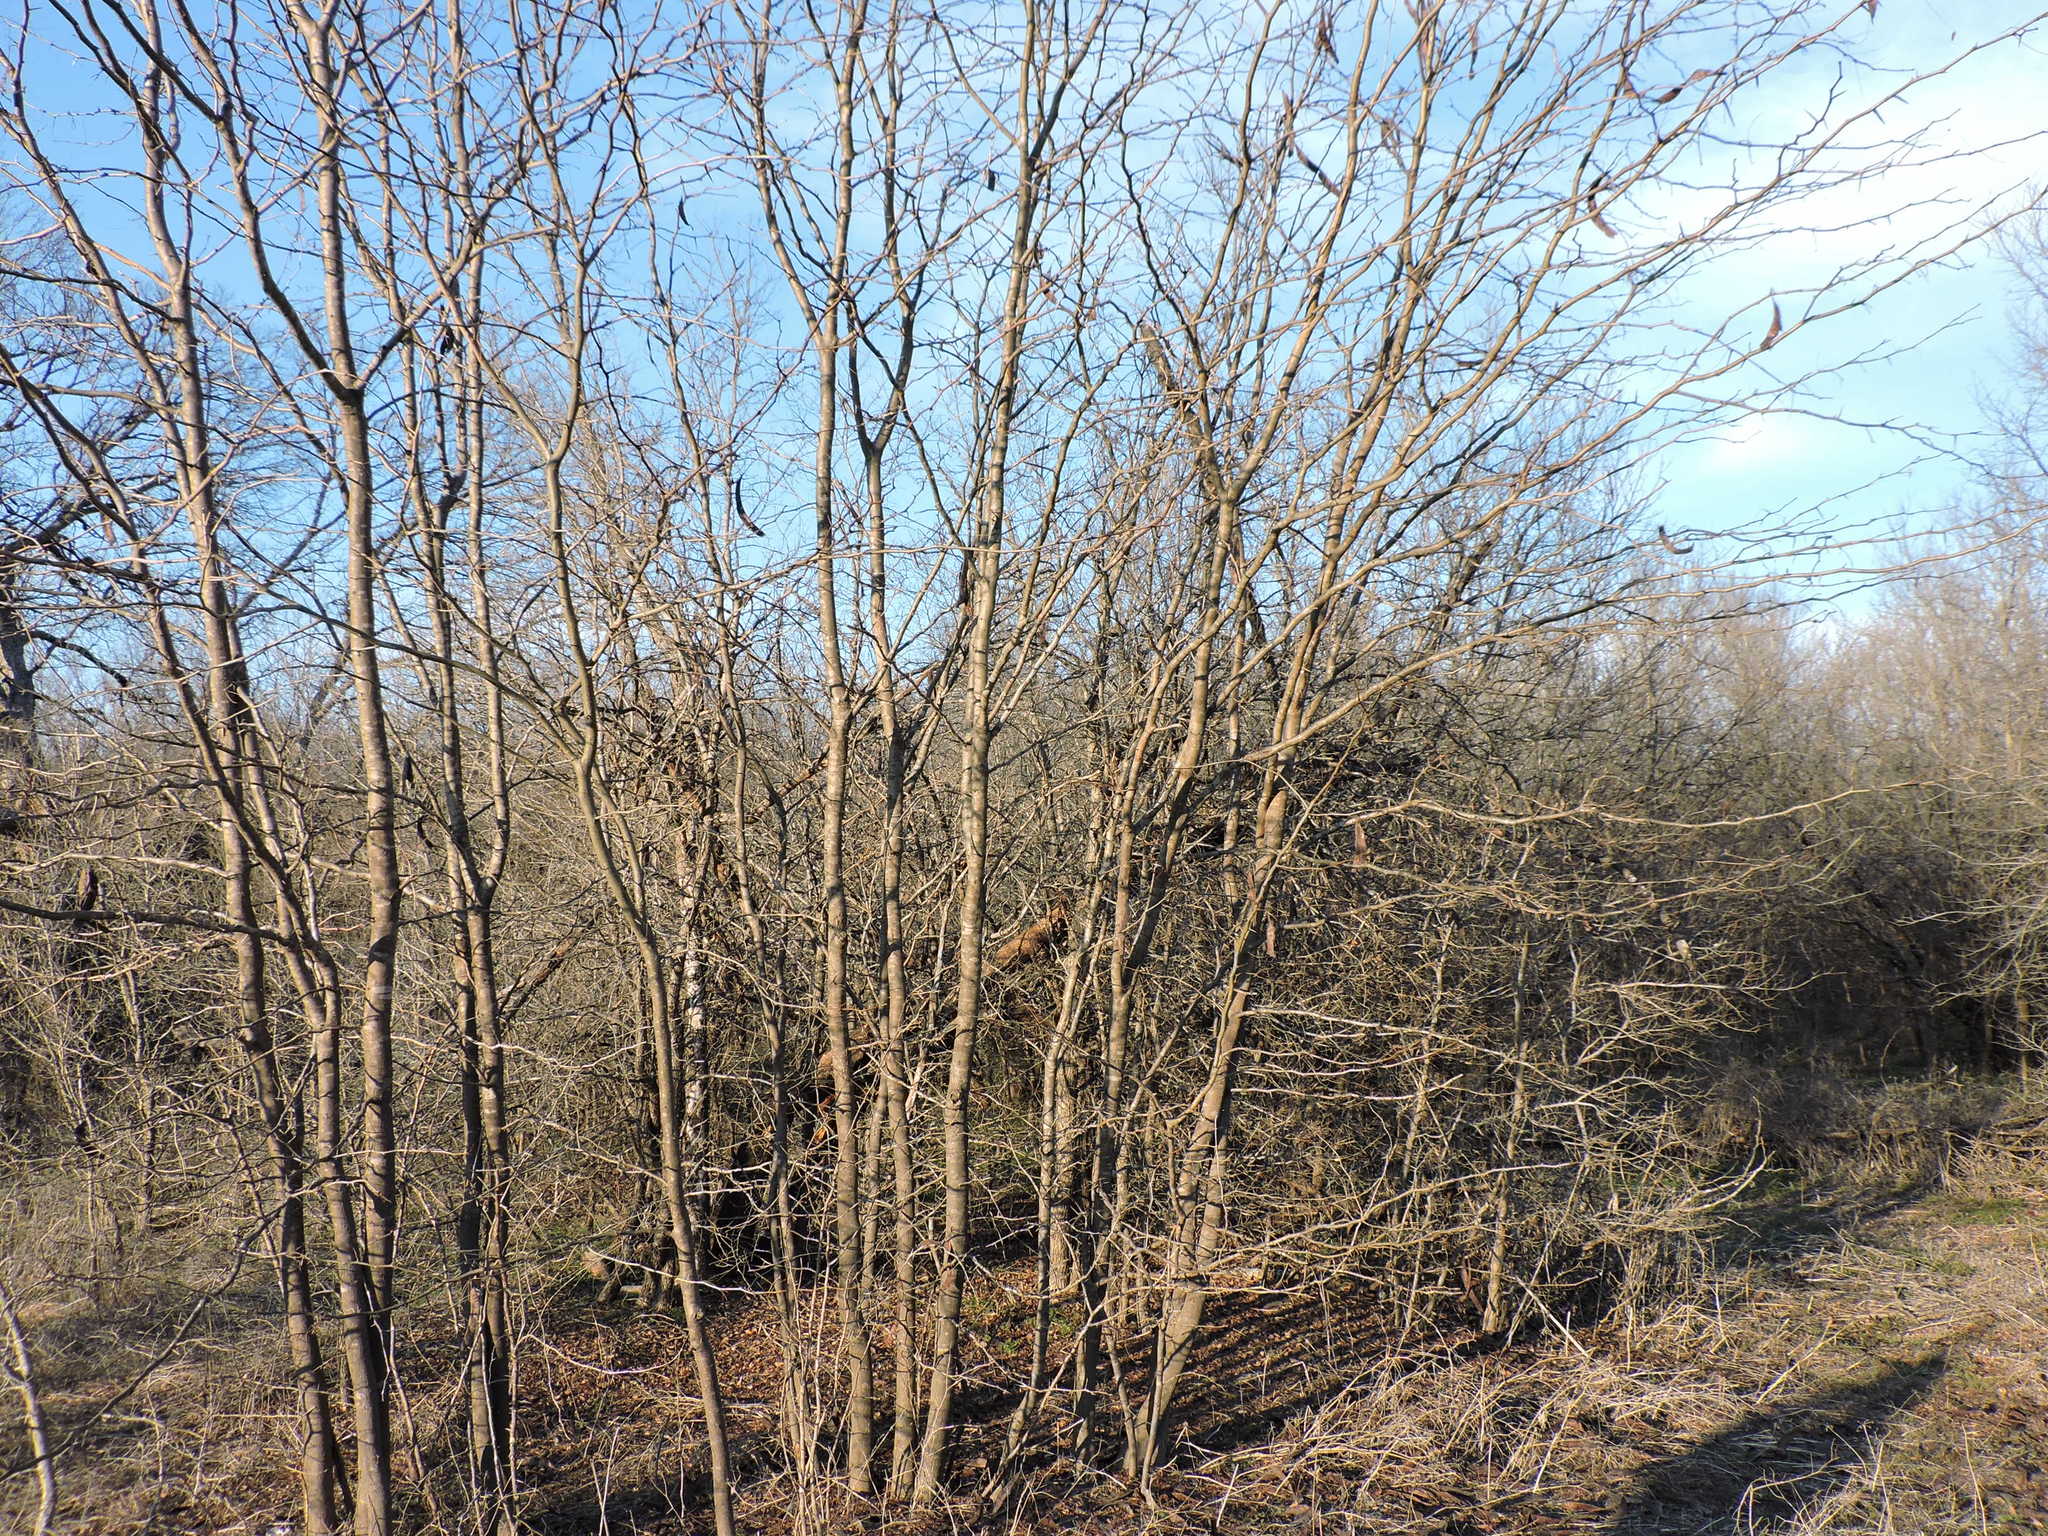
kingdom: Plantae
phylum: Tracheophyta
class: Magnoliopsida
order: Sapindales
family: Meliaceae
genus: Melia
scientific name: Melia azedarach
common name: Chinaberrytree
